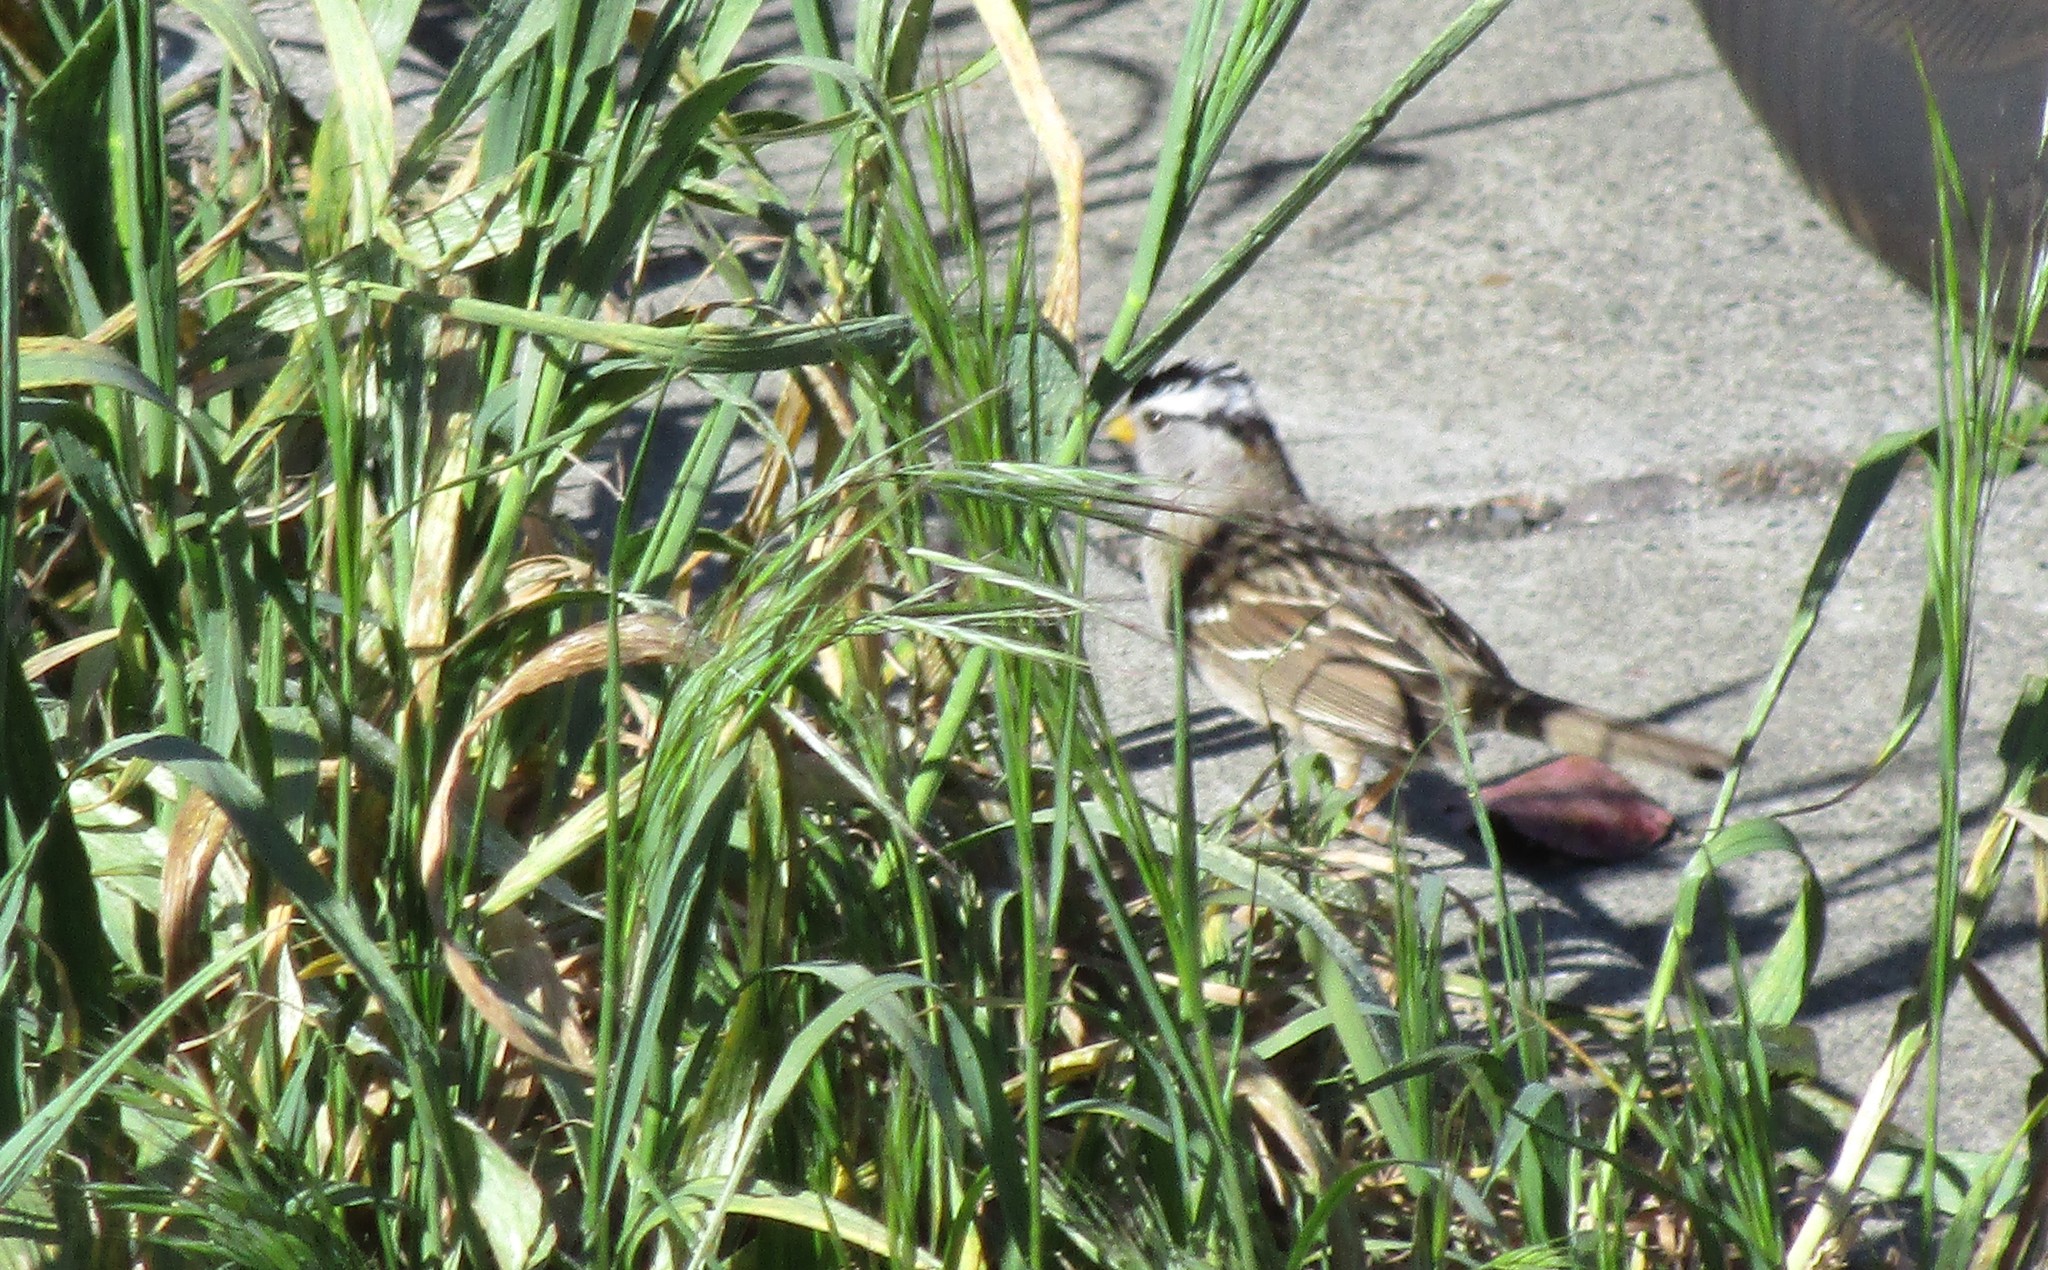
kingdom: Animalia
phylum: Chordata
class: Aves
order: Passeriformes
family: Passerellidae
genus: Zonotrichia
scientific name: Zonotrichia leucophrys
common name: White-crowned sparrow
